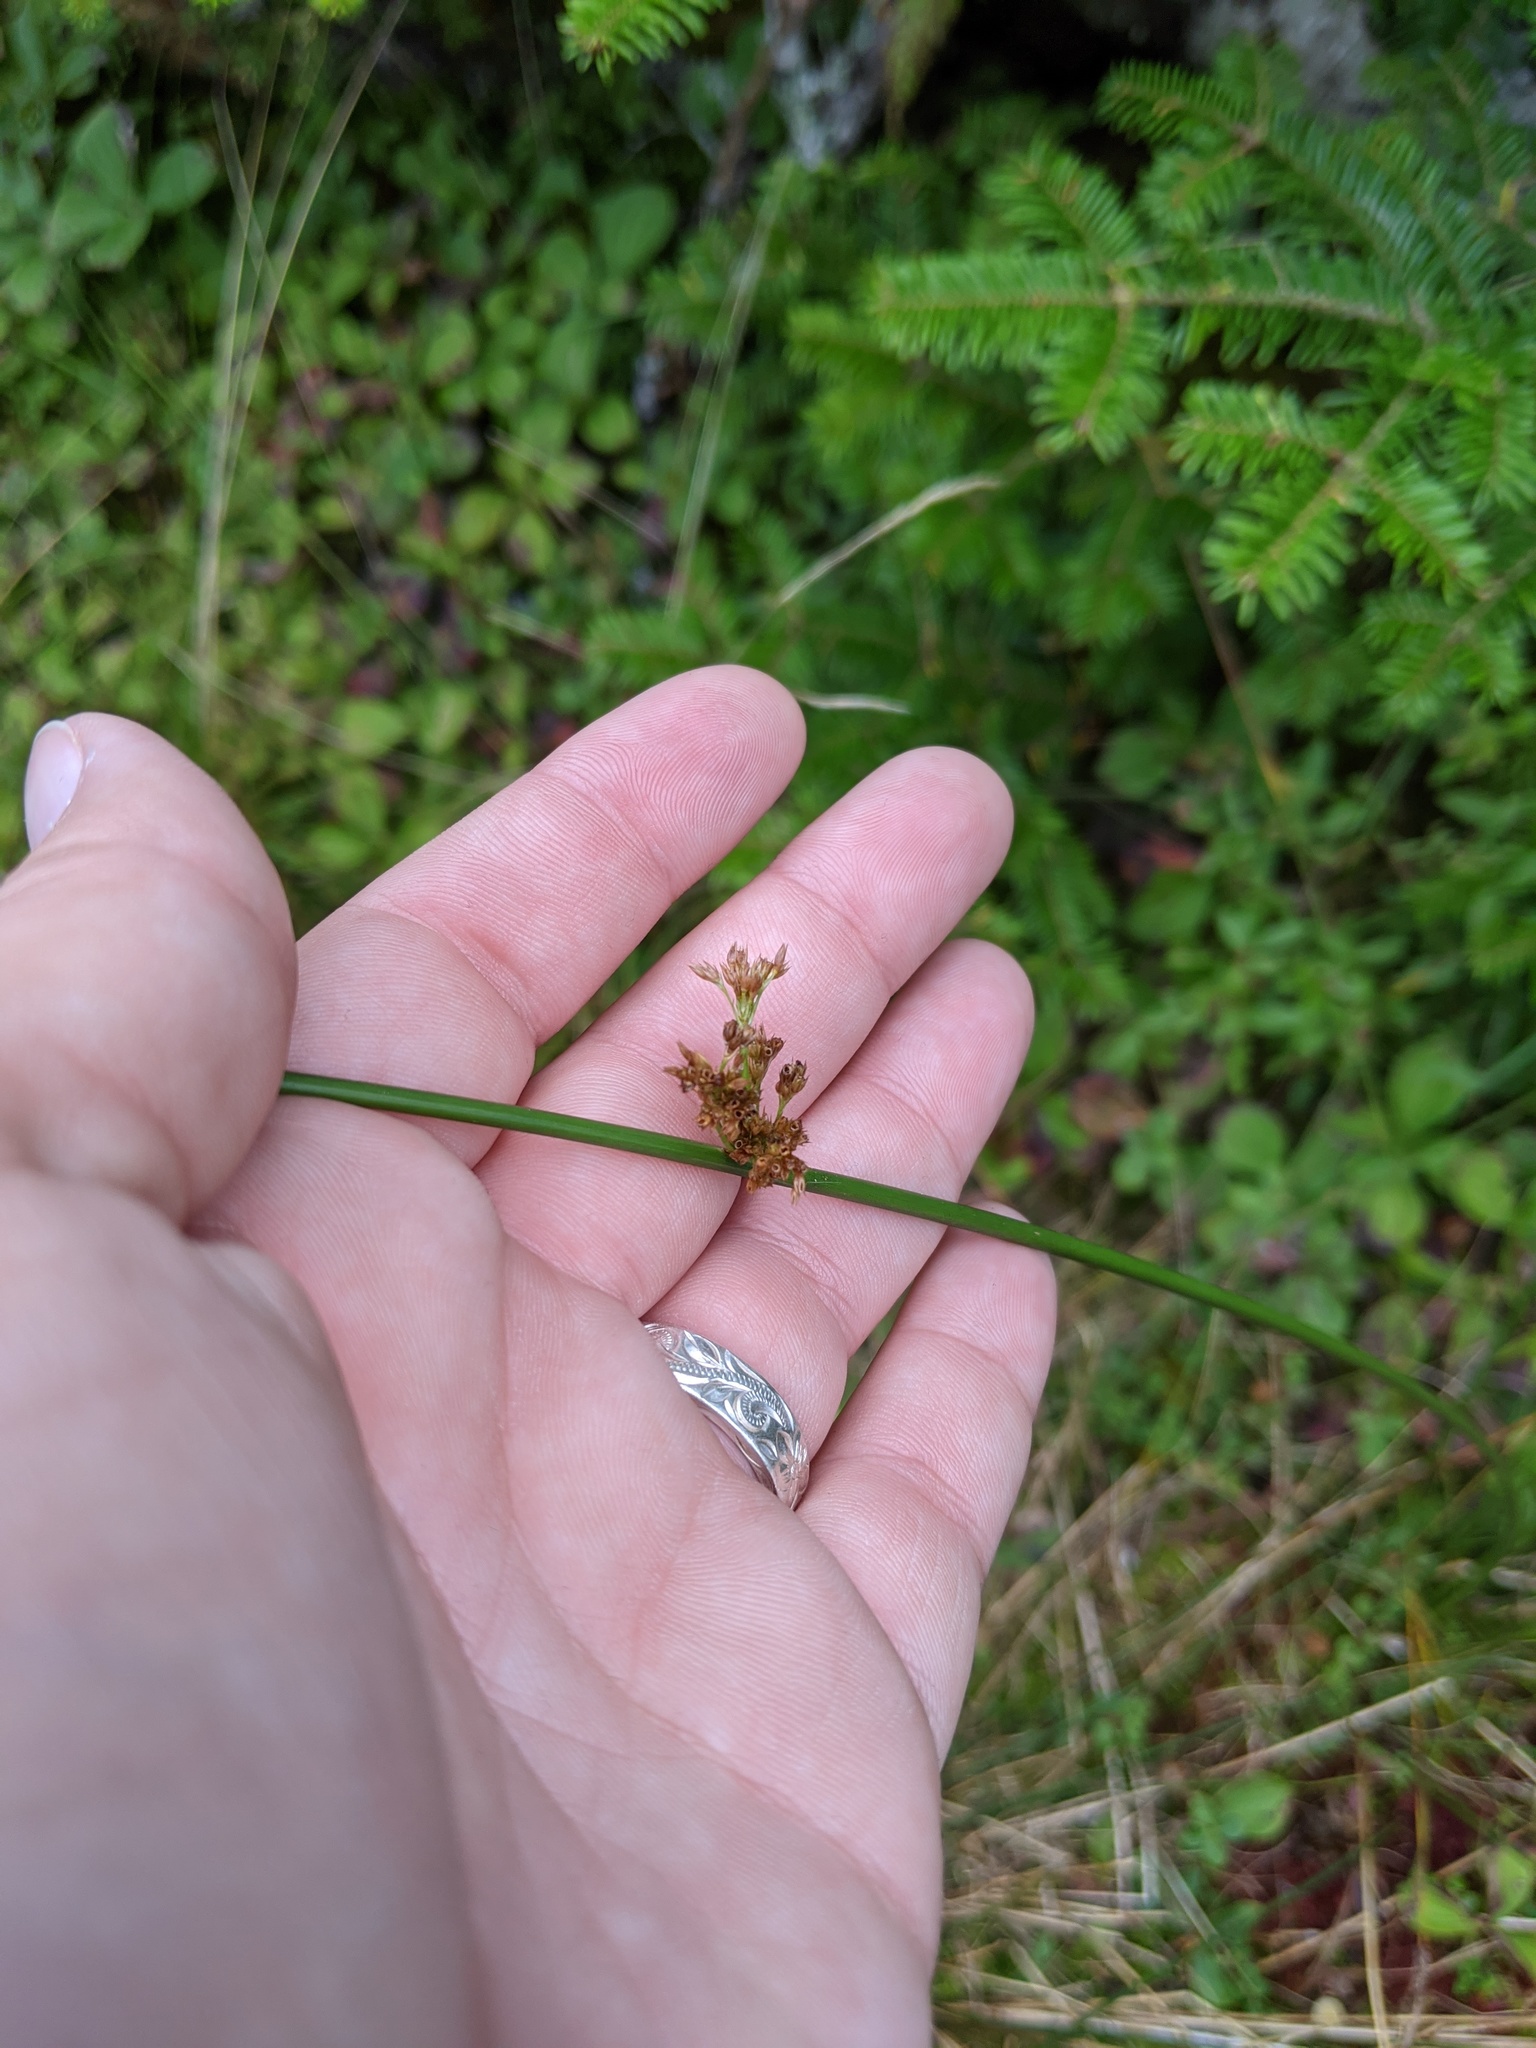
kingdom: Plantae
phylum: Tracheophyta
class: Liliopsida
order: Poales
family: Juncaceae
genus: Juncus
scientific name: Juncus effusus
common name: Soft rush
